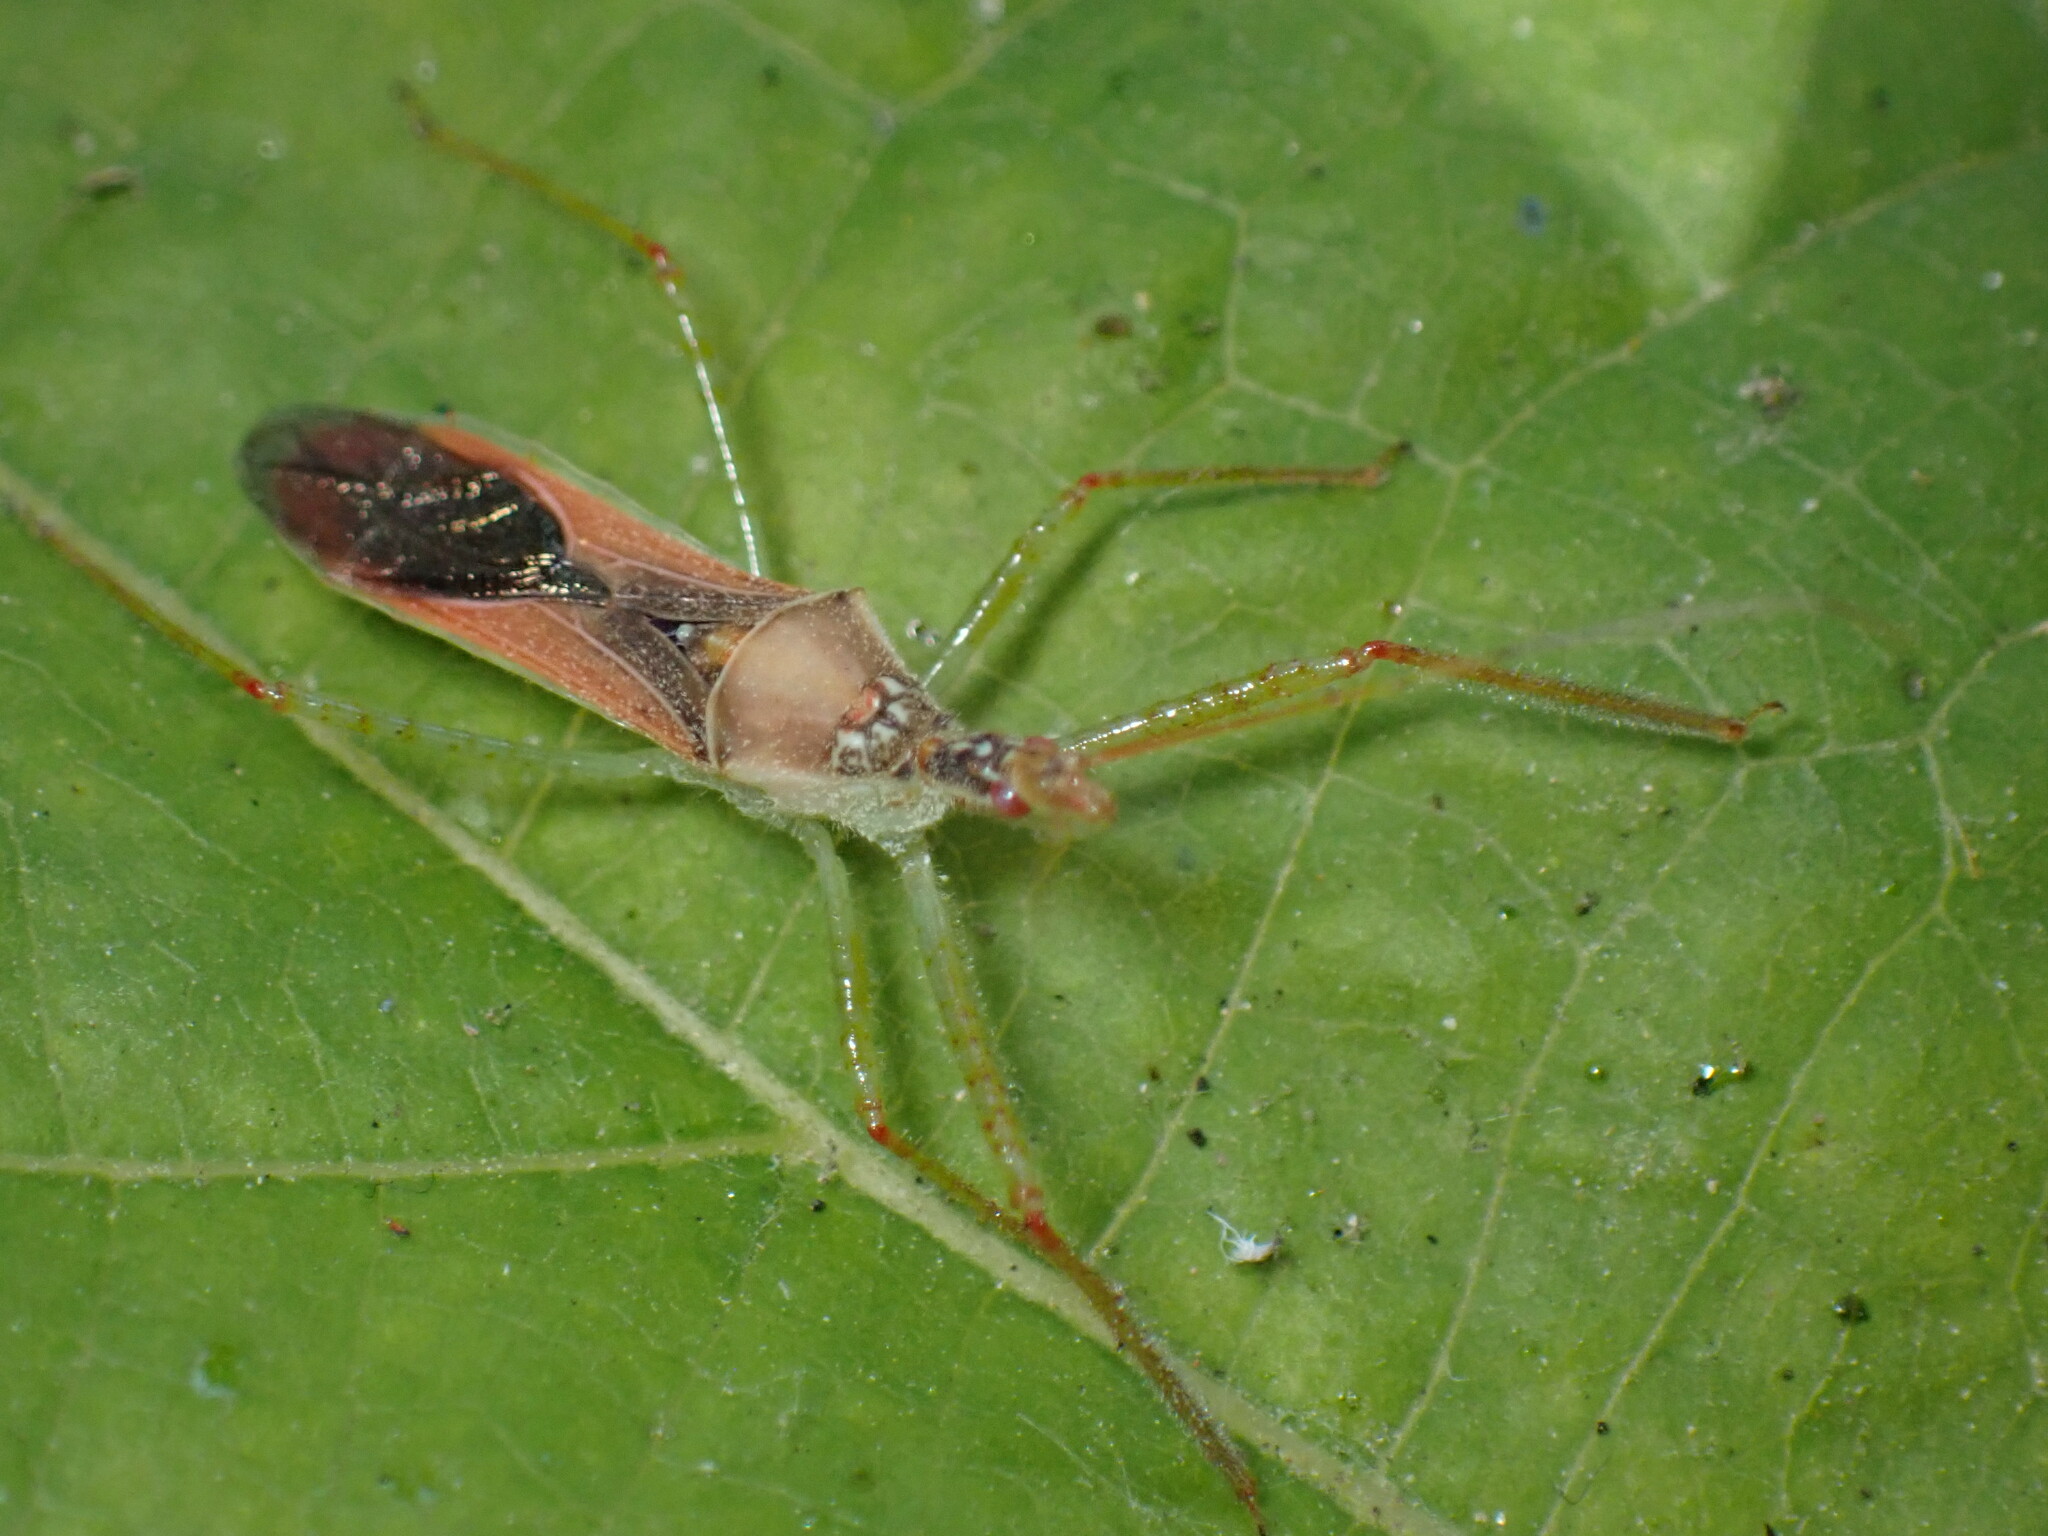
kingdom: Animalia
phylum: Arthropoda
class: Insecta
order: Hemiptera
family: Reduviidae
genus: Zelus
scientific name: Zelus renardii
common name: Assassin bug
